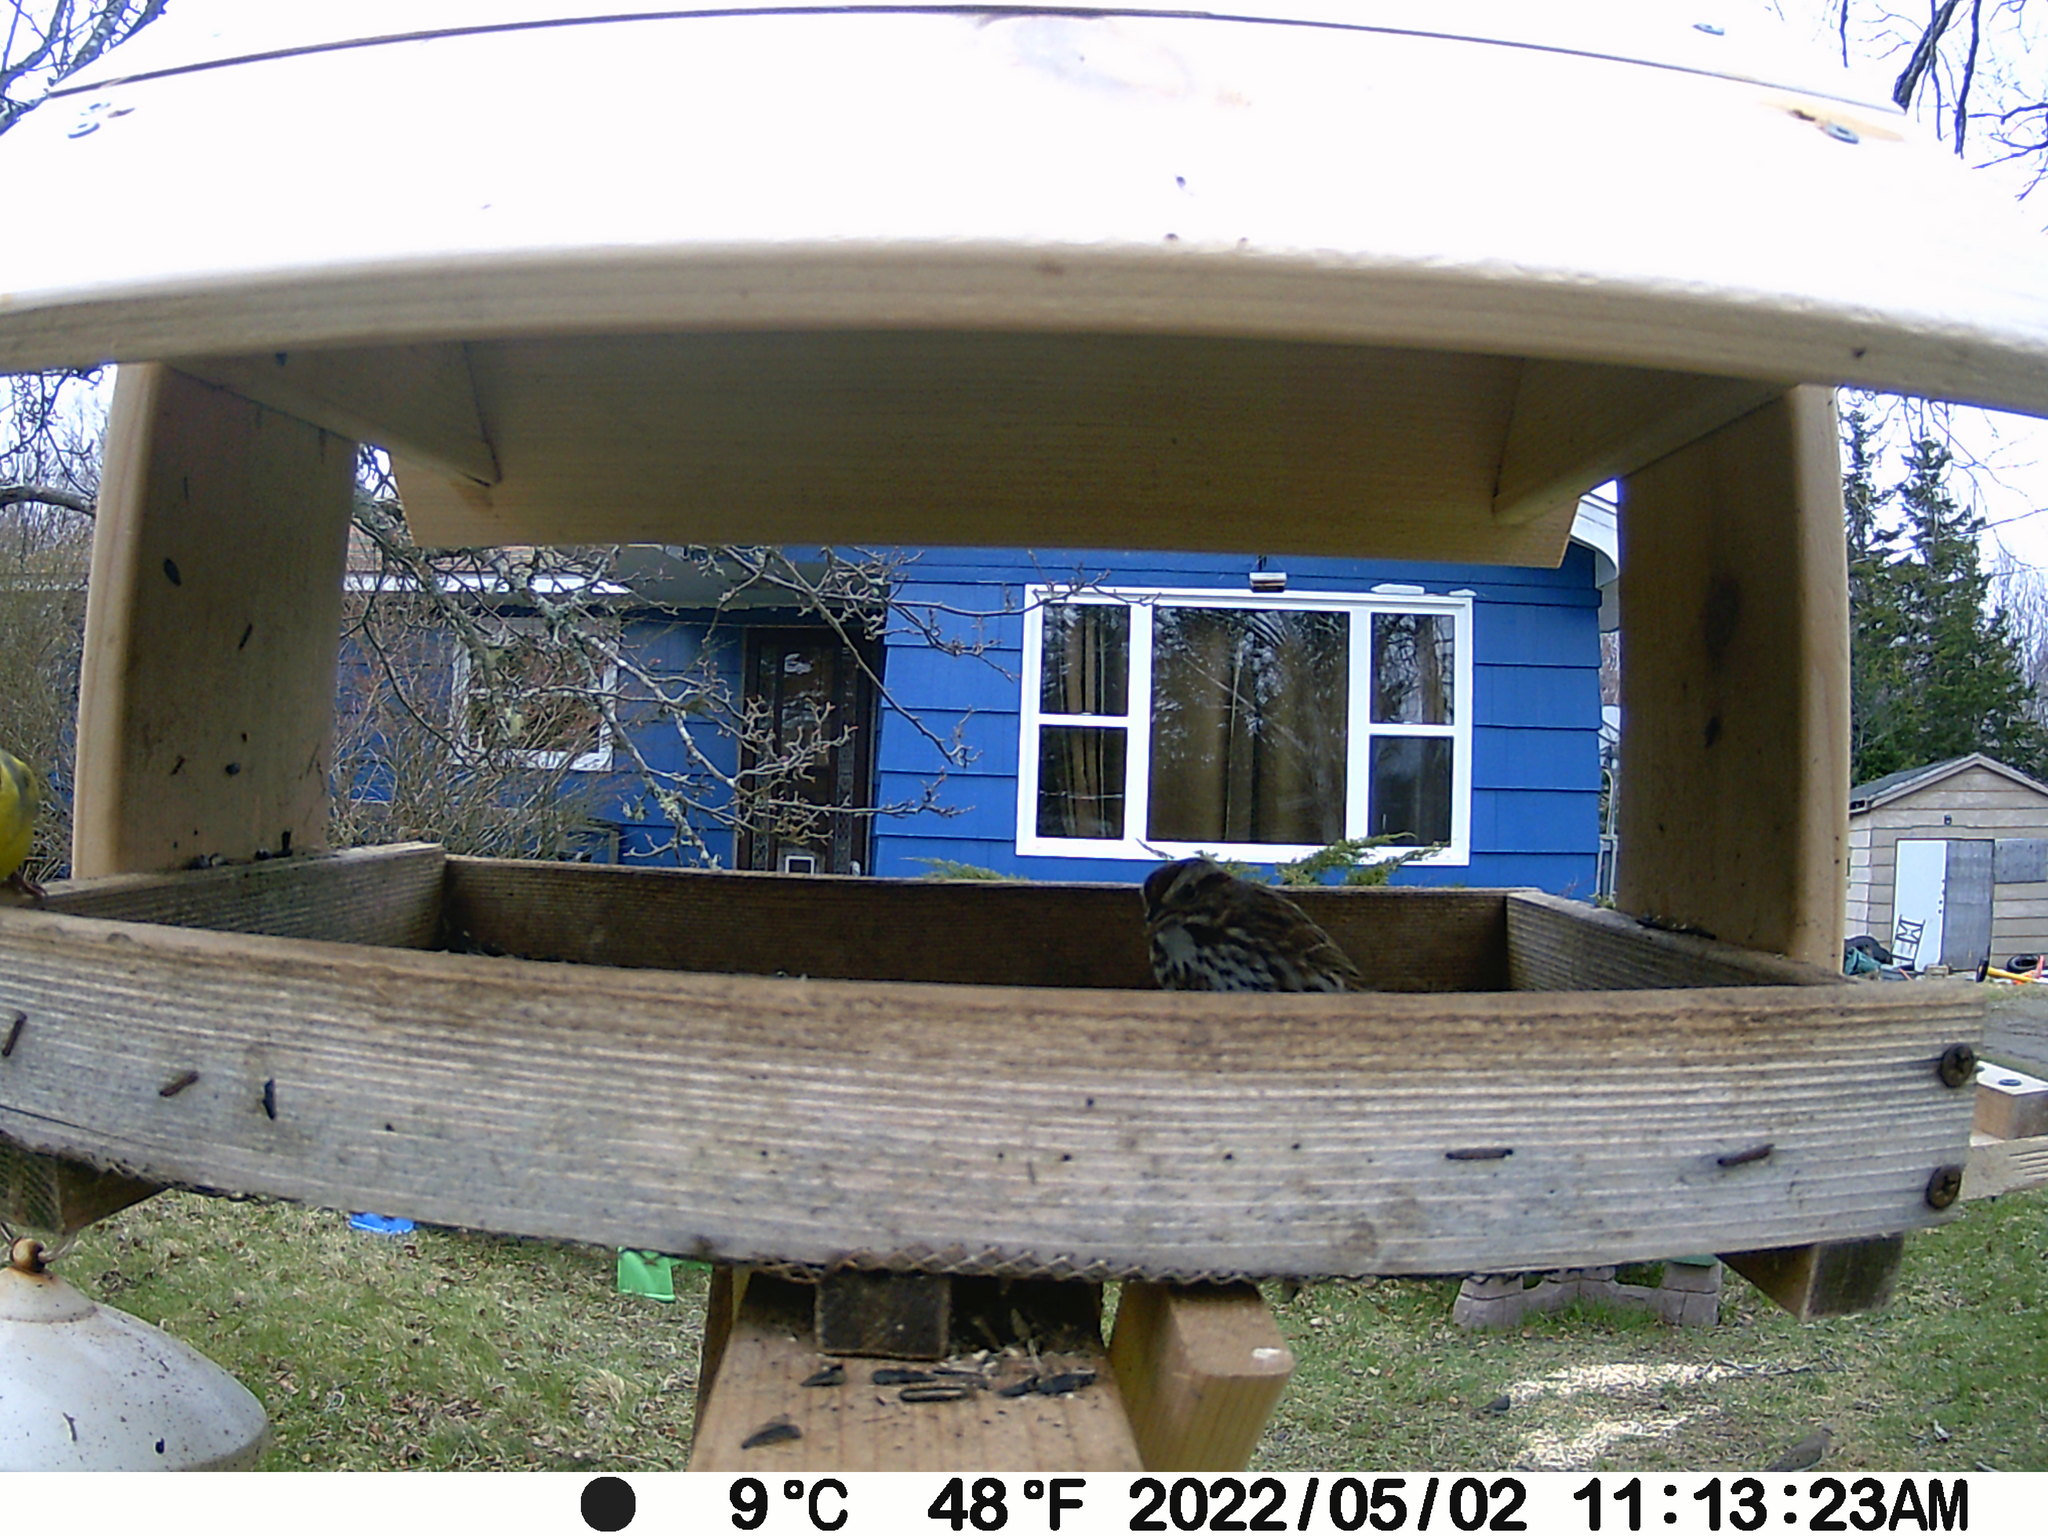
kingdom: Animalia
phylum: Chordata
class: Aves
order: Passeriformes
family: Passerellidae
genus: Melospiza
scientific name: Melospiza melodia
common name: Song sparrow
